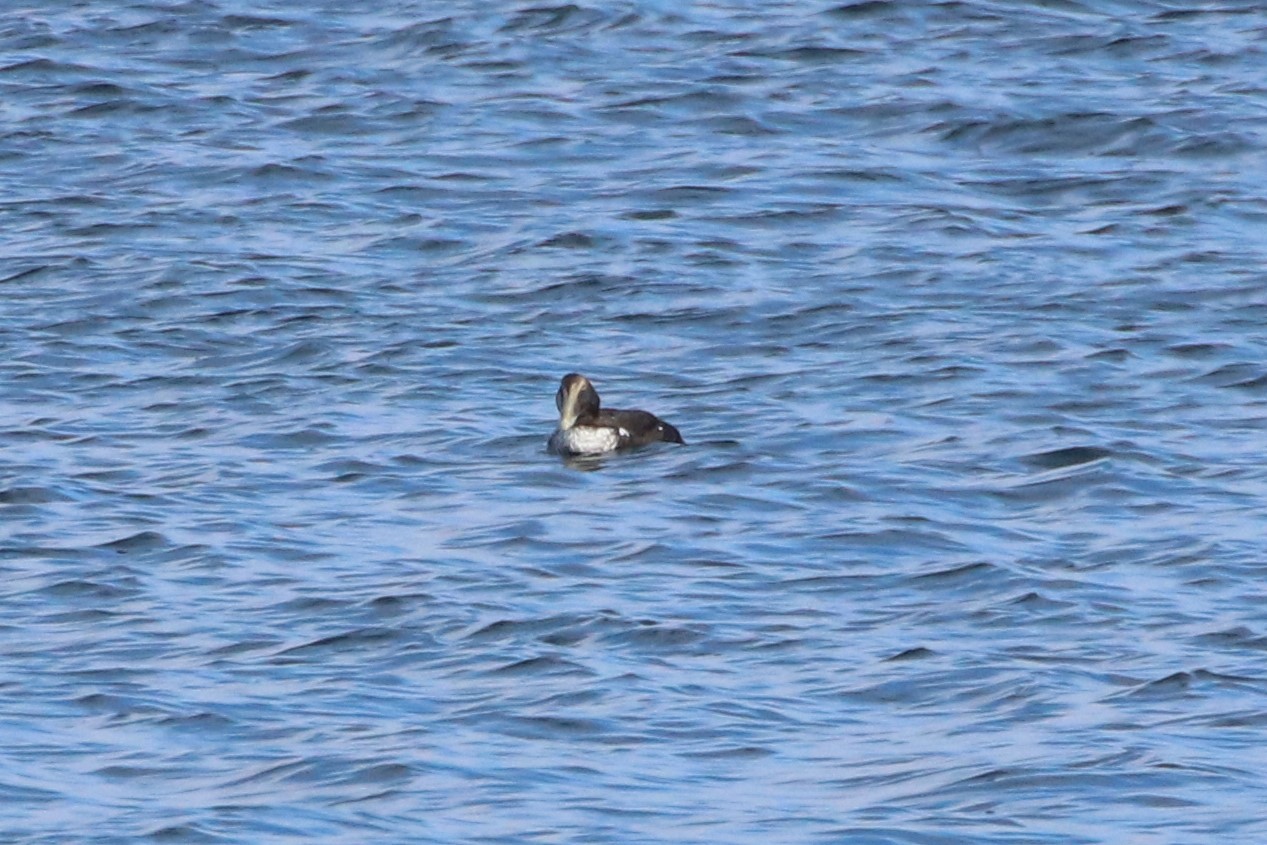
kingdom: Animalia
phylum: Chordata
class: Aves
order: Anseriformes
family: Anatidae
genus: Somateria
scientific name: Somateria mollissima
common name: Common eider
